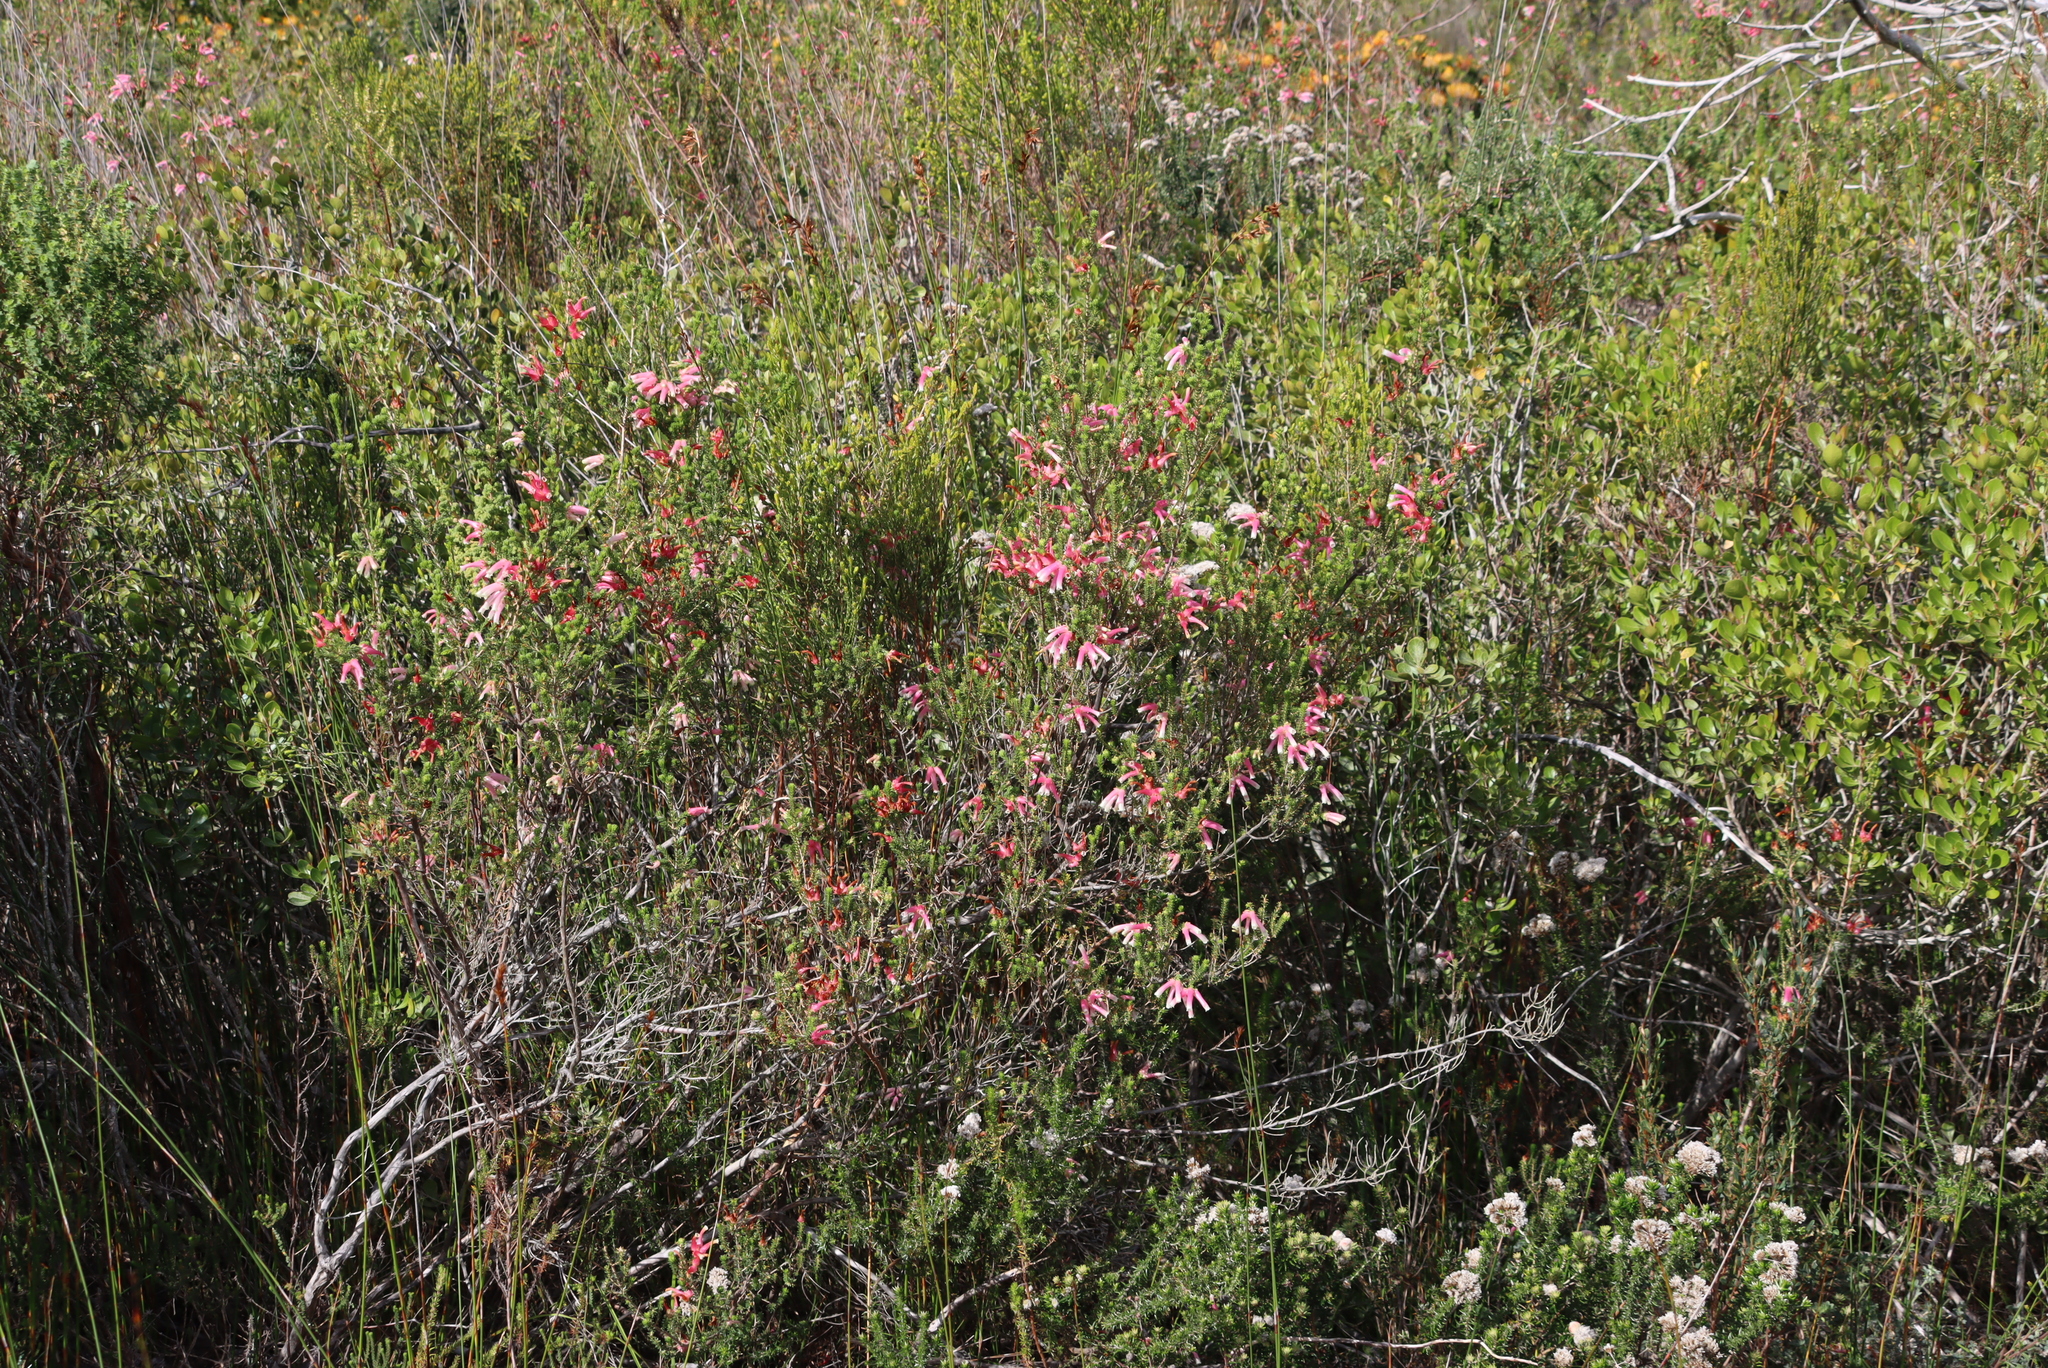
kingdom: Plantae
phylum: Tracheophyta
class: Magnoliopsida
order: Ericales
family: Ericaceae
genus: Erica
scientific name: Erica bauera
